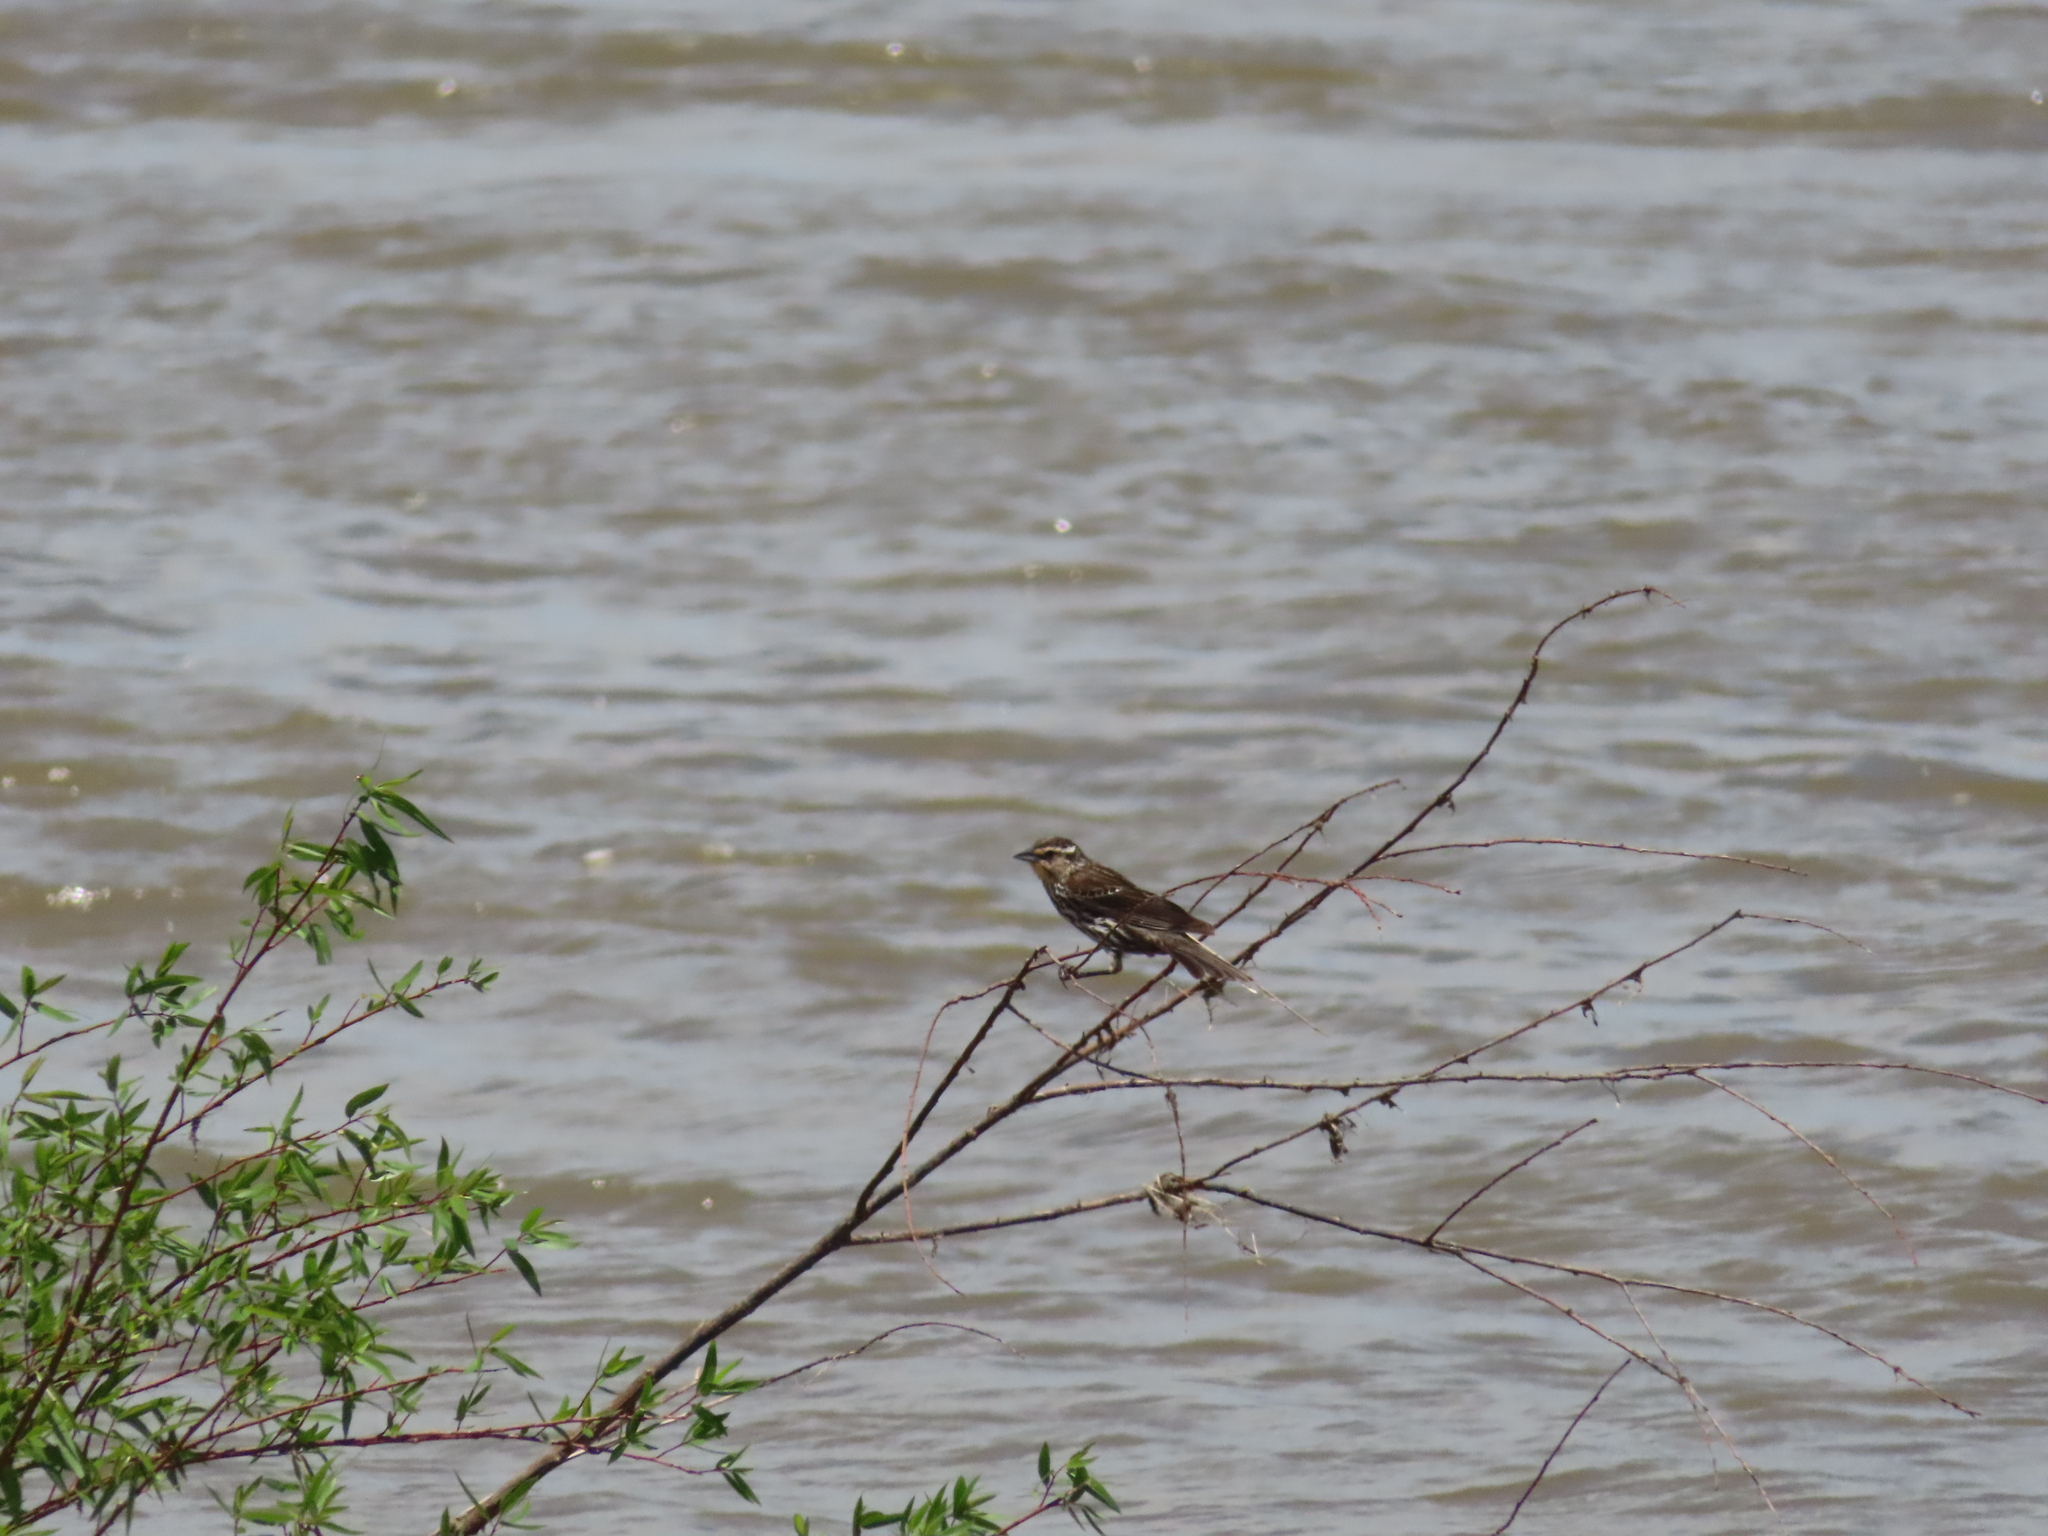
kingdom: Animalia
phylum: Chordata
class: Aves
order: Passeriformes
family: Icteridae
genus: Agelaius
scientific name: Agelaius phoeniceus
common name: Red-winged blackbird
